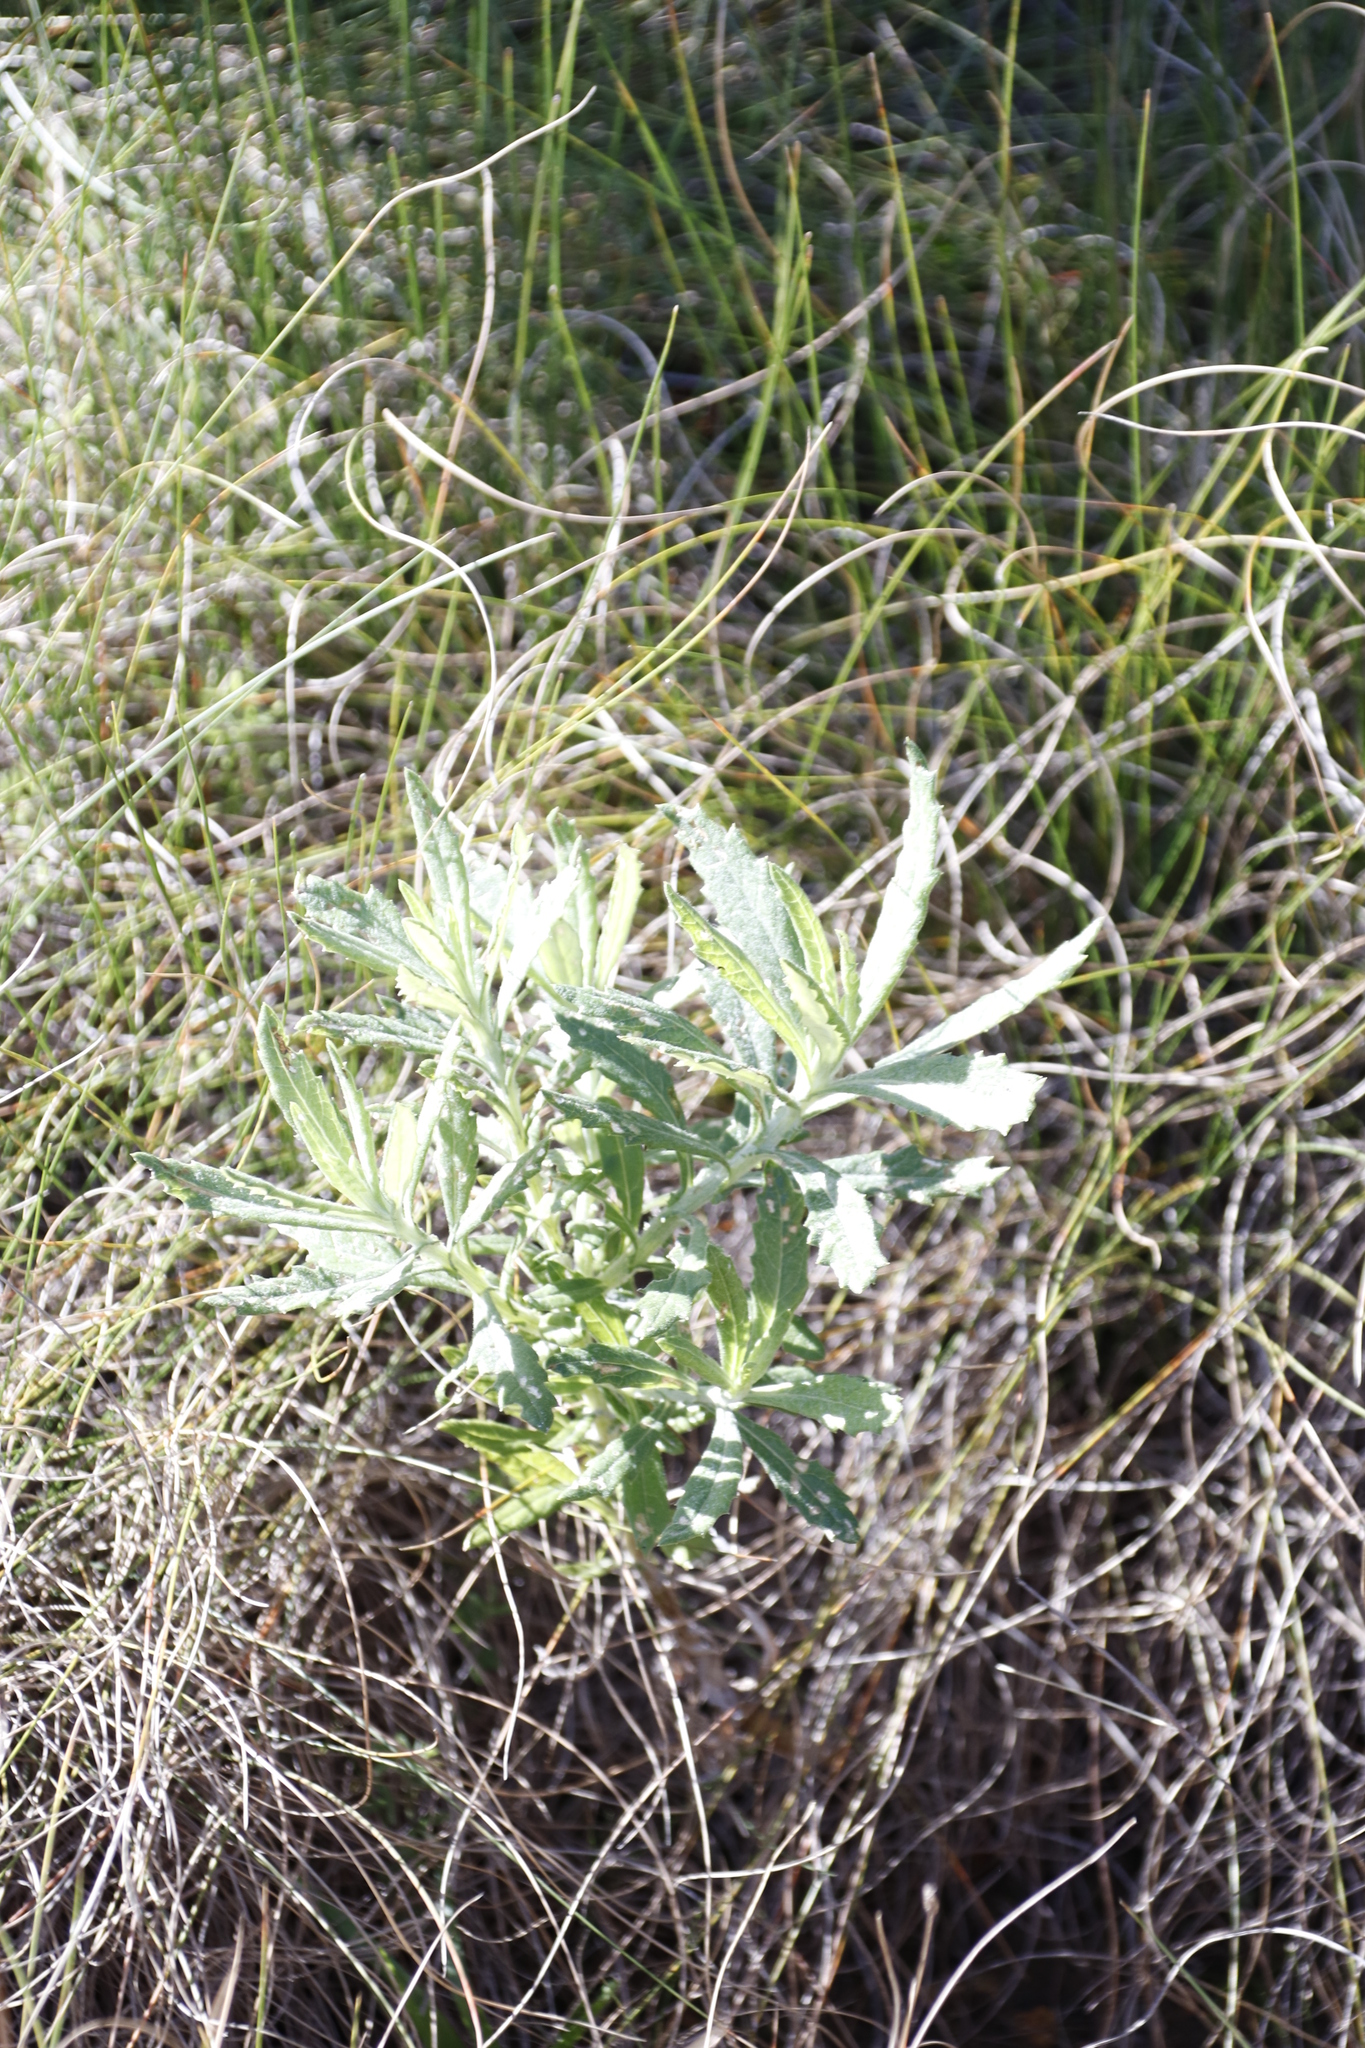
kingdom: Plantae
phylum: Tracheophyta
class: Magnoliopsida
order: Asterales
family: Asteraceae
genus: Senecio
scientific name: Senecio pterophorus
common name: Shoddy ragwort
